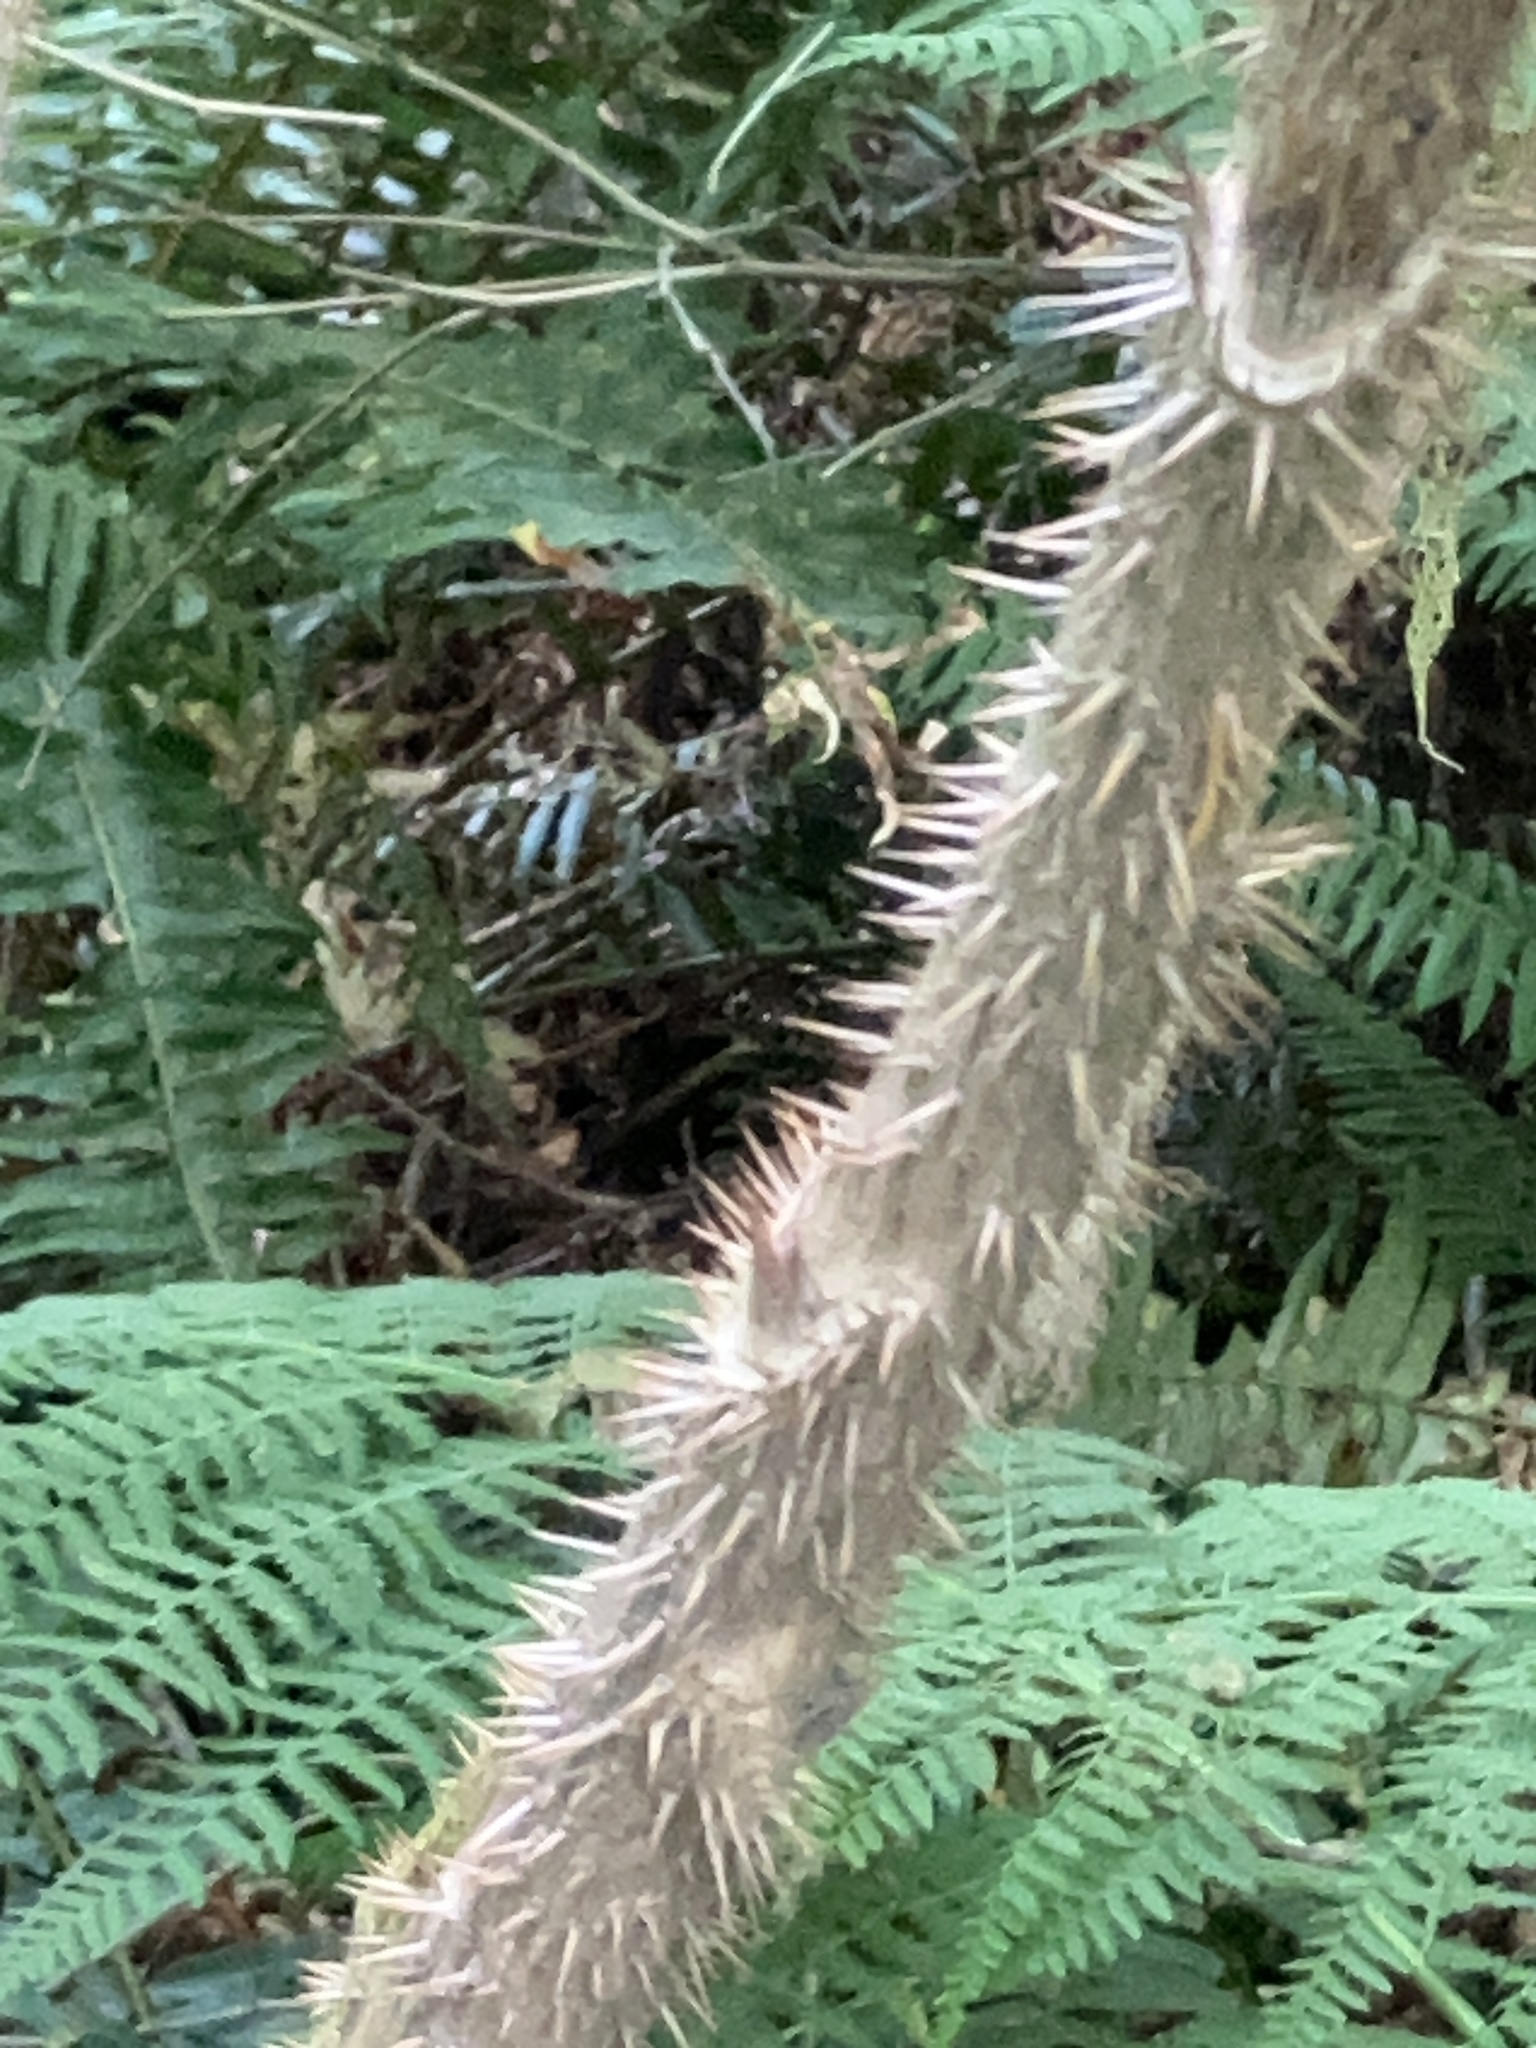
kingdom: Plantae
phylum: Tracheophyta
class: Magnoliopsida
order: Apiales
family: Araliaceae
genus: Oplopanax
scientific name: Oplopanax horridus
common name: Devil's walking-stick
